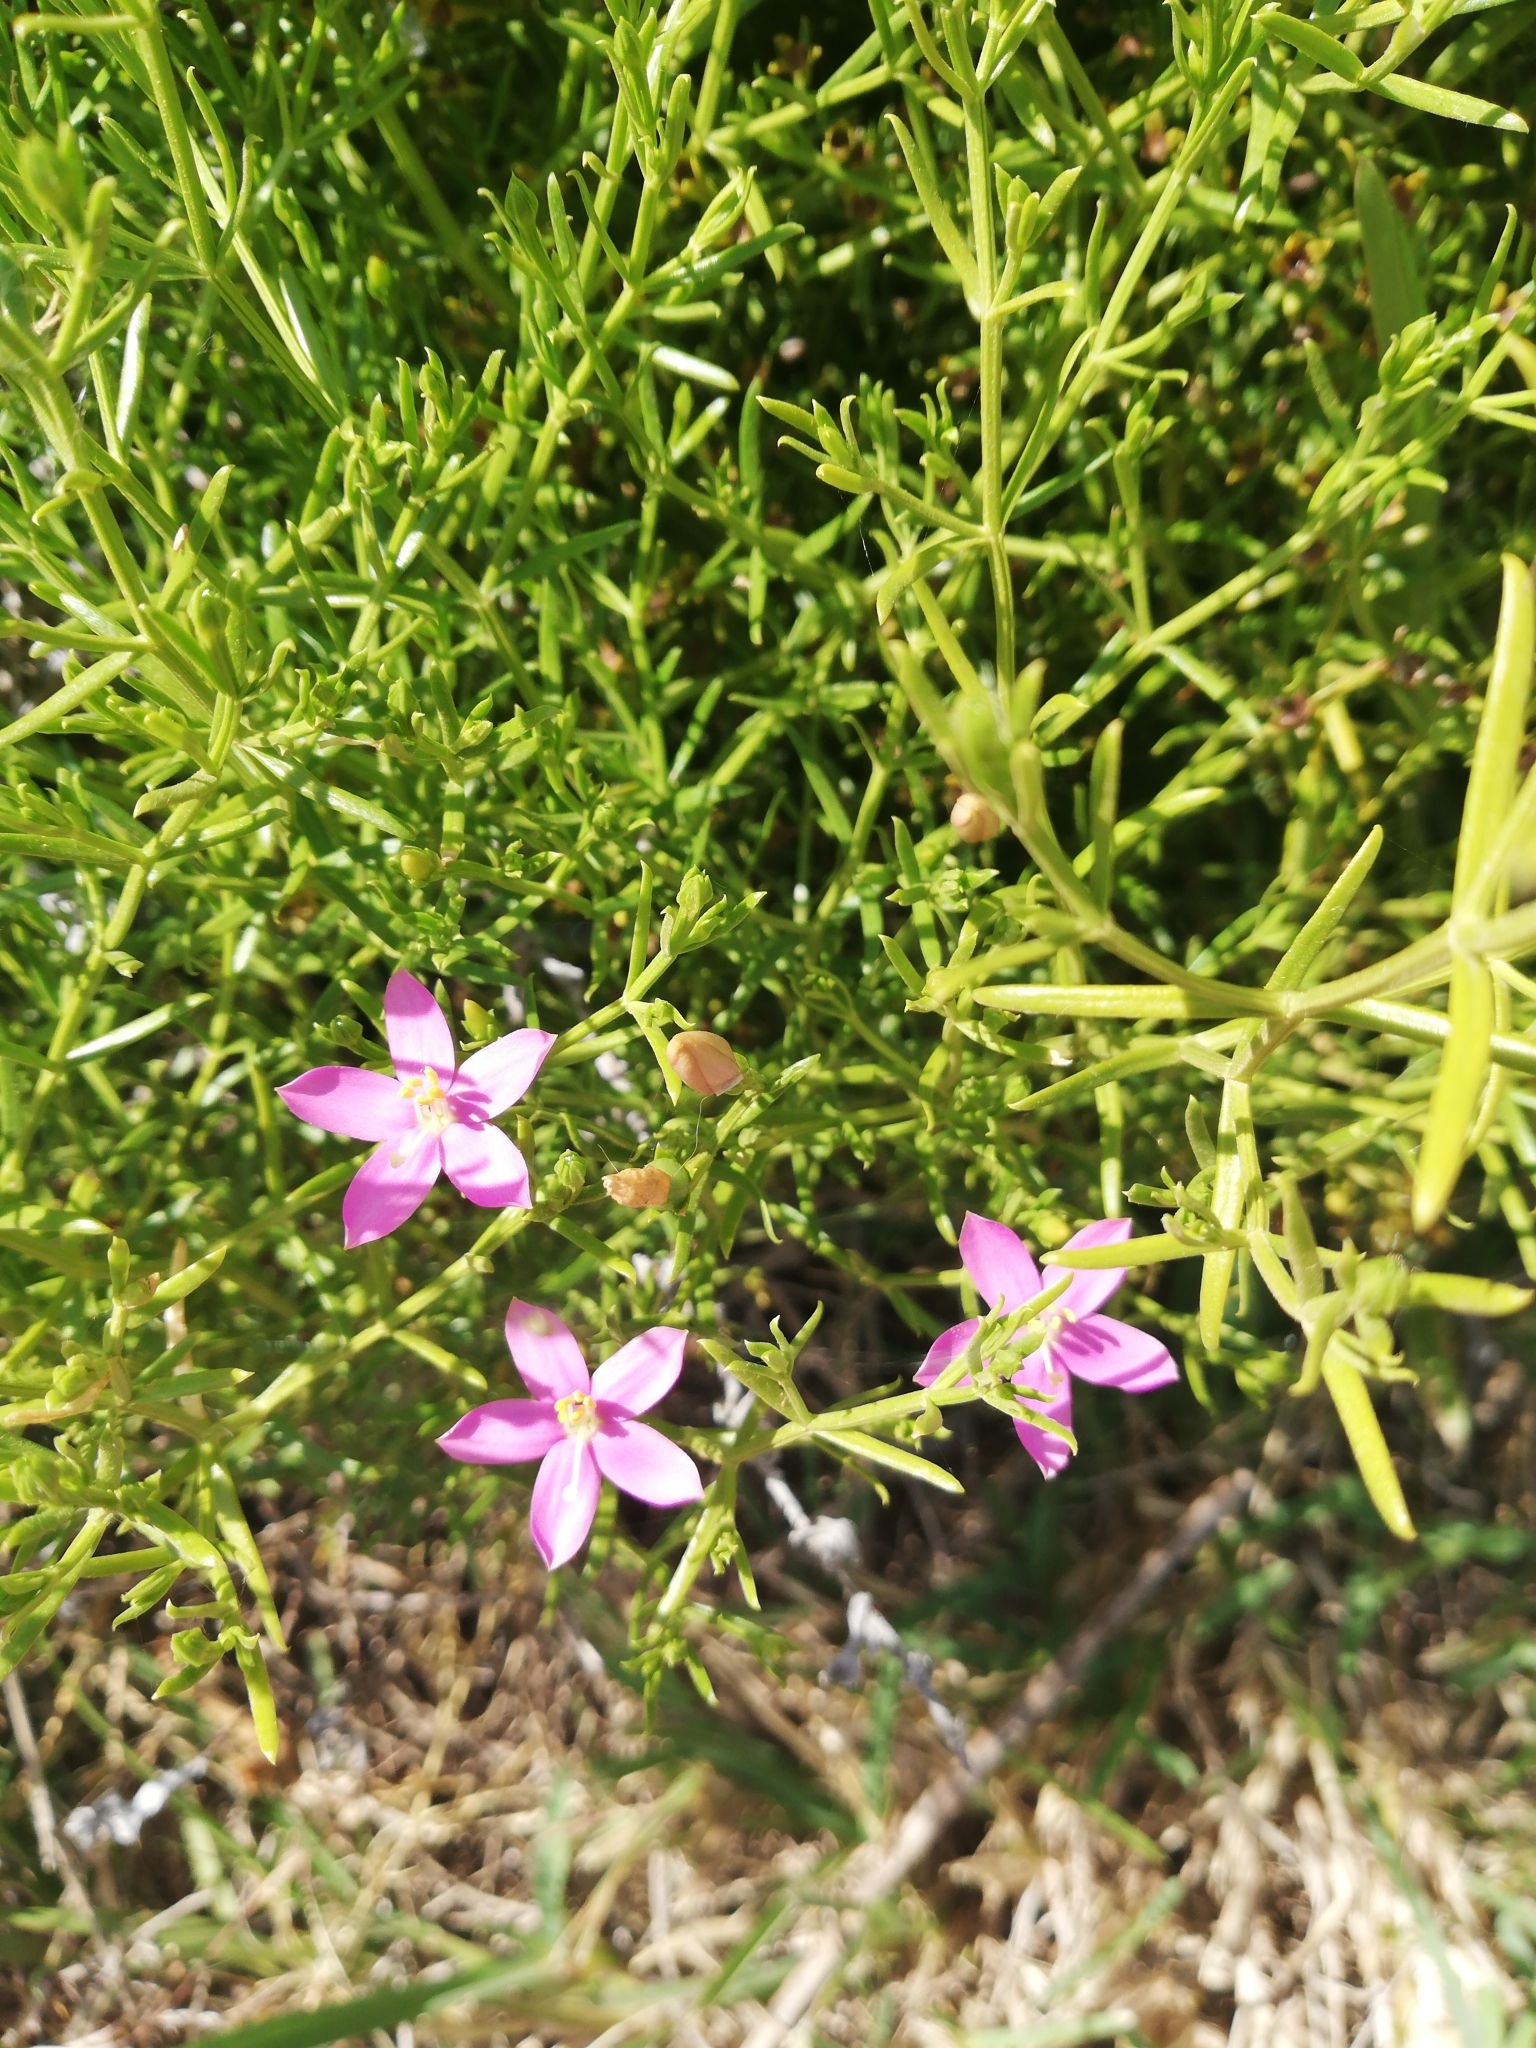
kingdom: Plantae
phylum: Tracheophyta
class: Magnoliopsida
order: Gentianales
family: Gentianaceae
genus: Chironia
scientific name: Chironia baccifera
